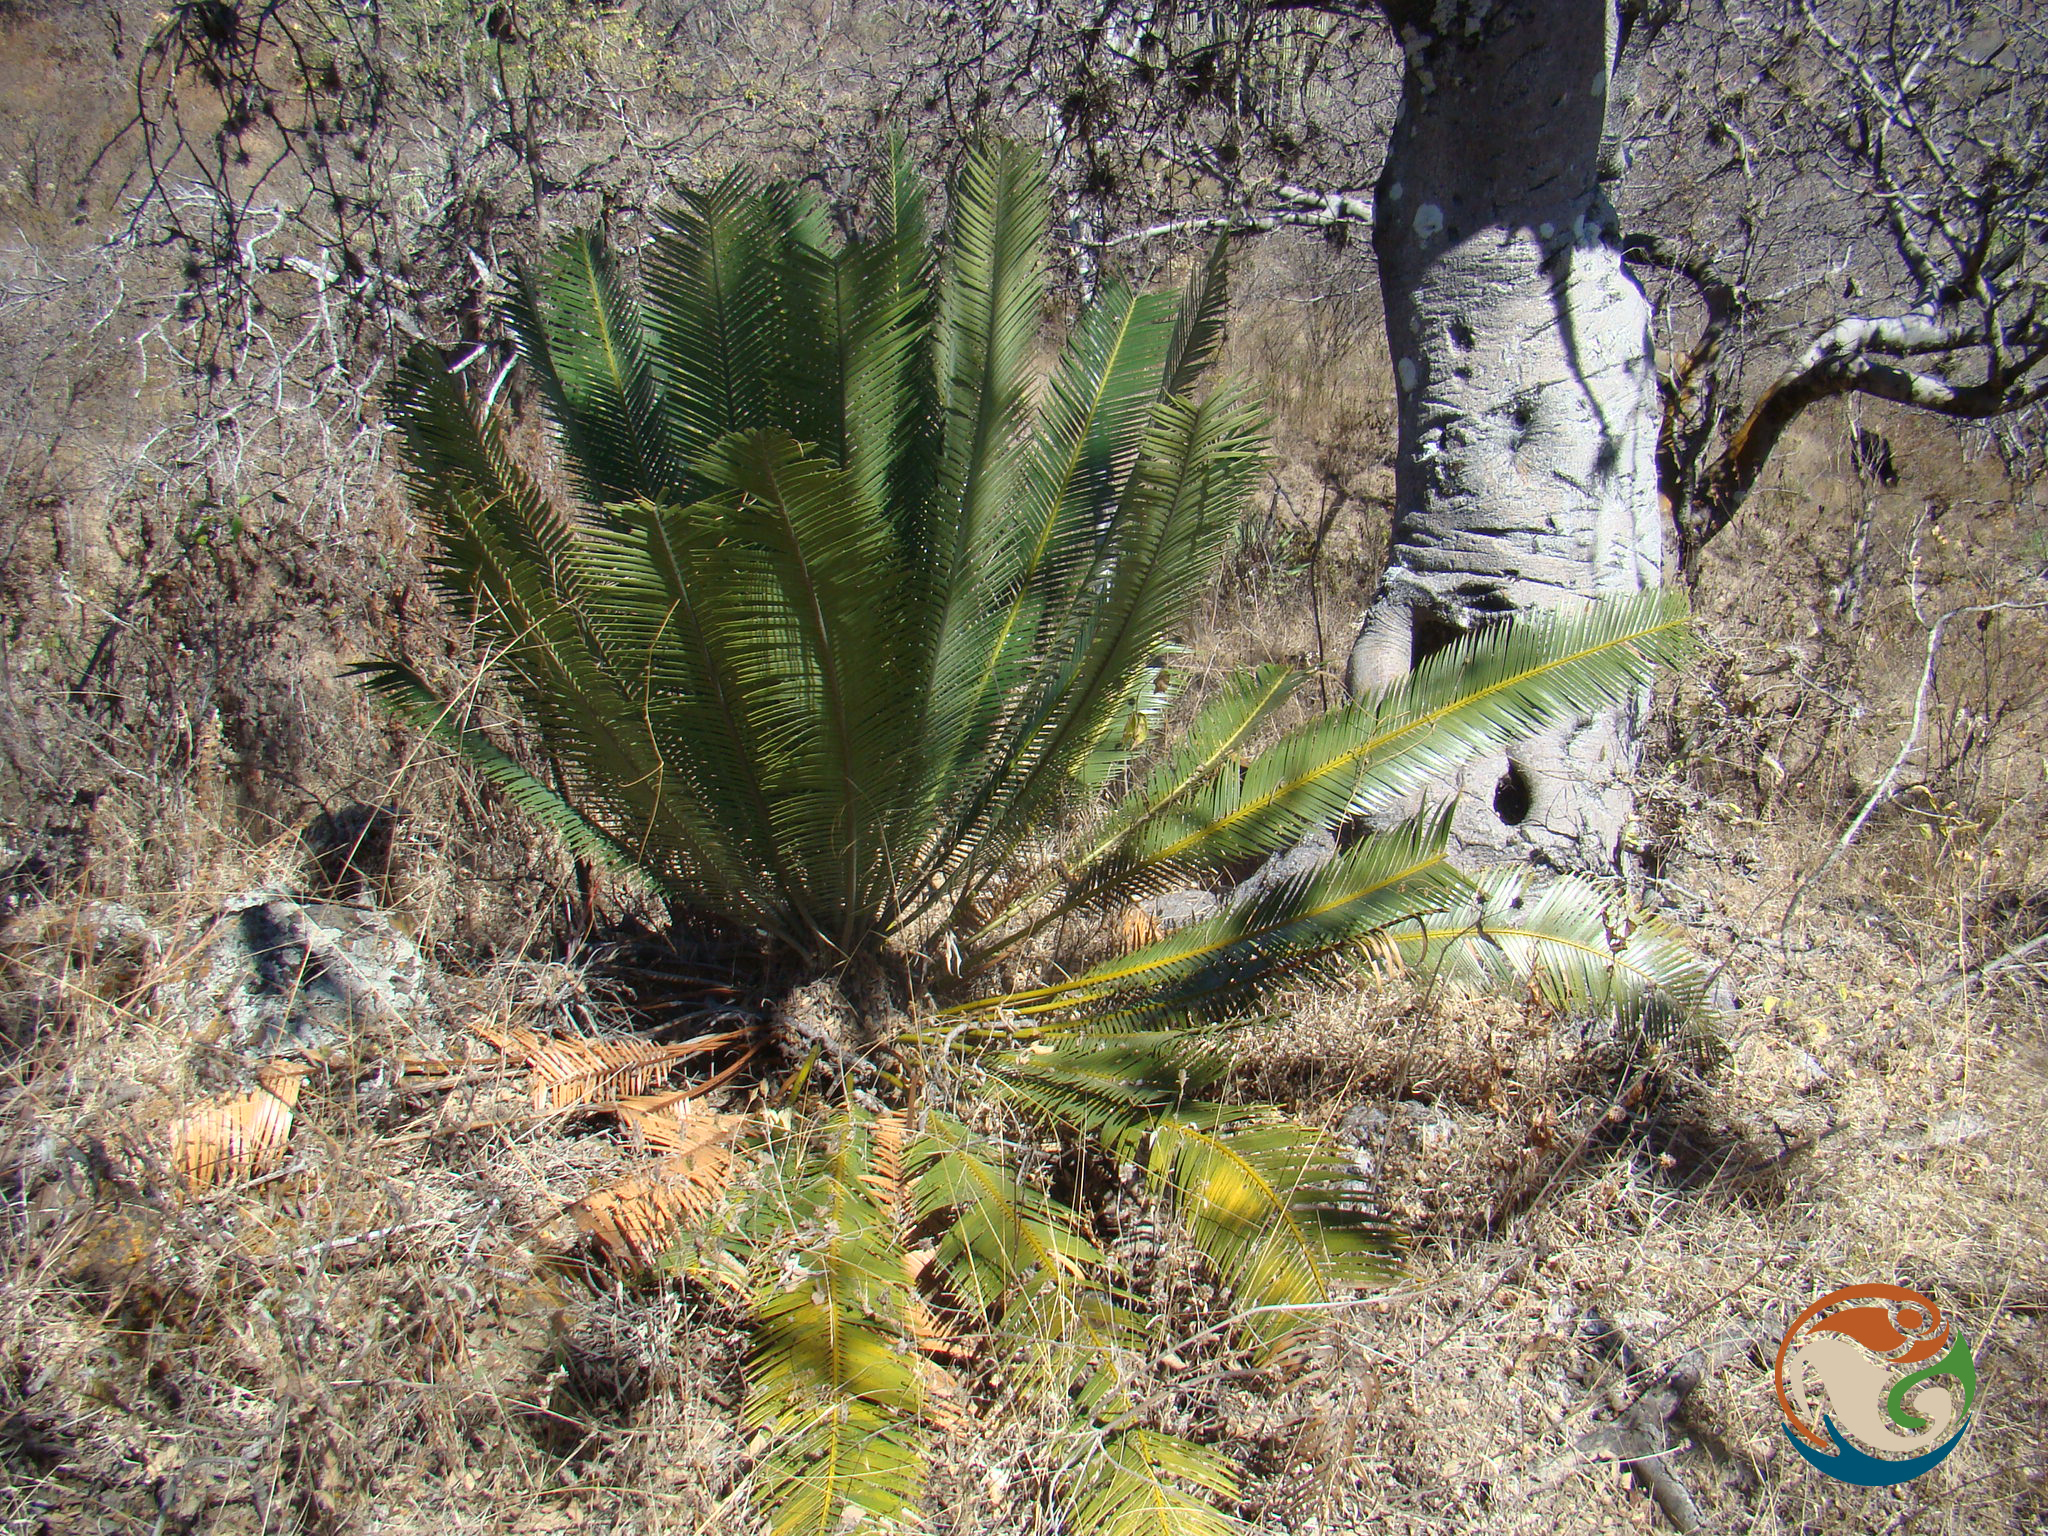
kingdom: Plantae
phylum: Tracheophyta
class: Cycadopsida
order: Cycadales
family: Zamiaceae
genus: Dioon
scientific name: Dioon planifolium
